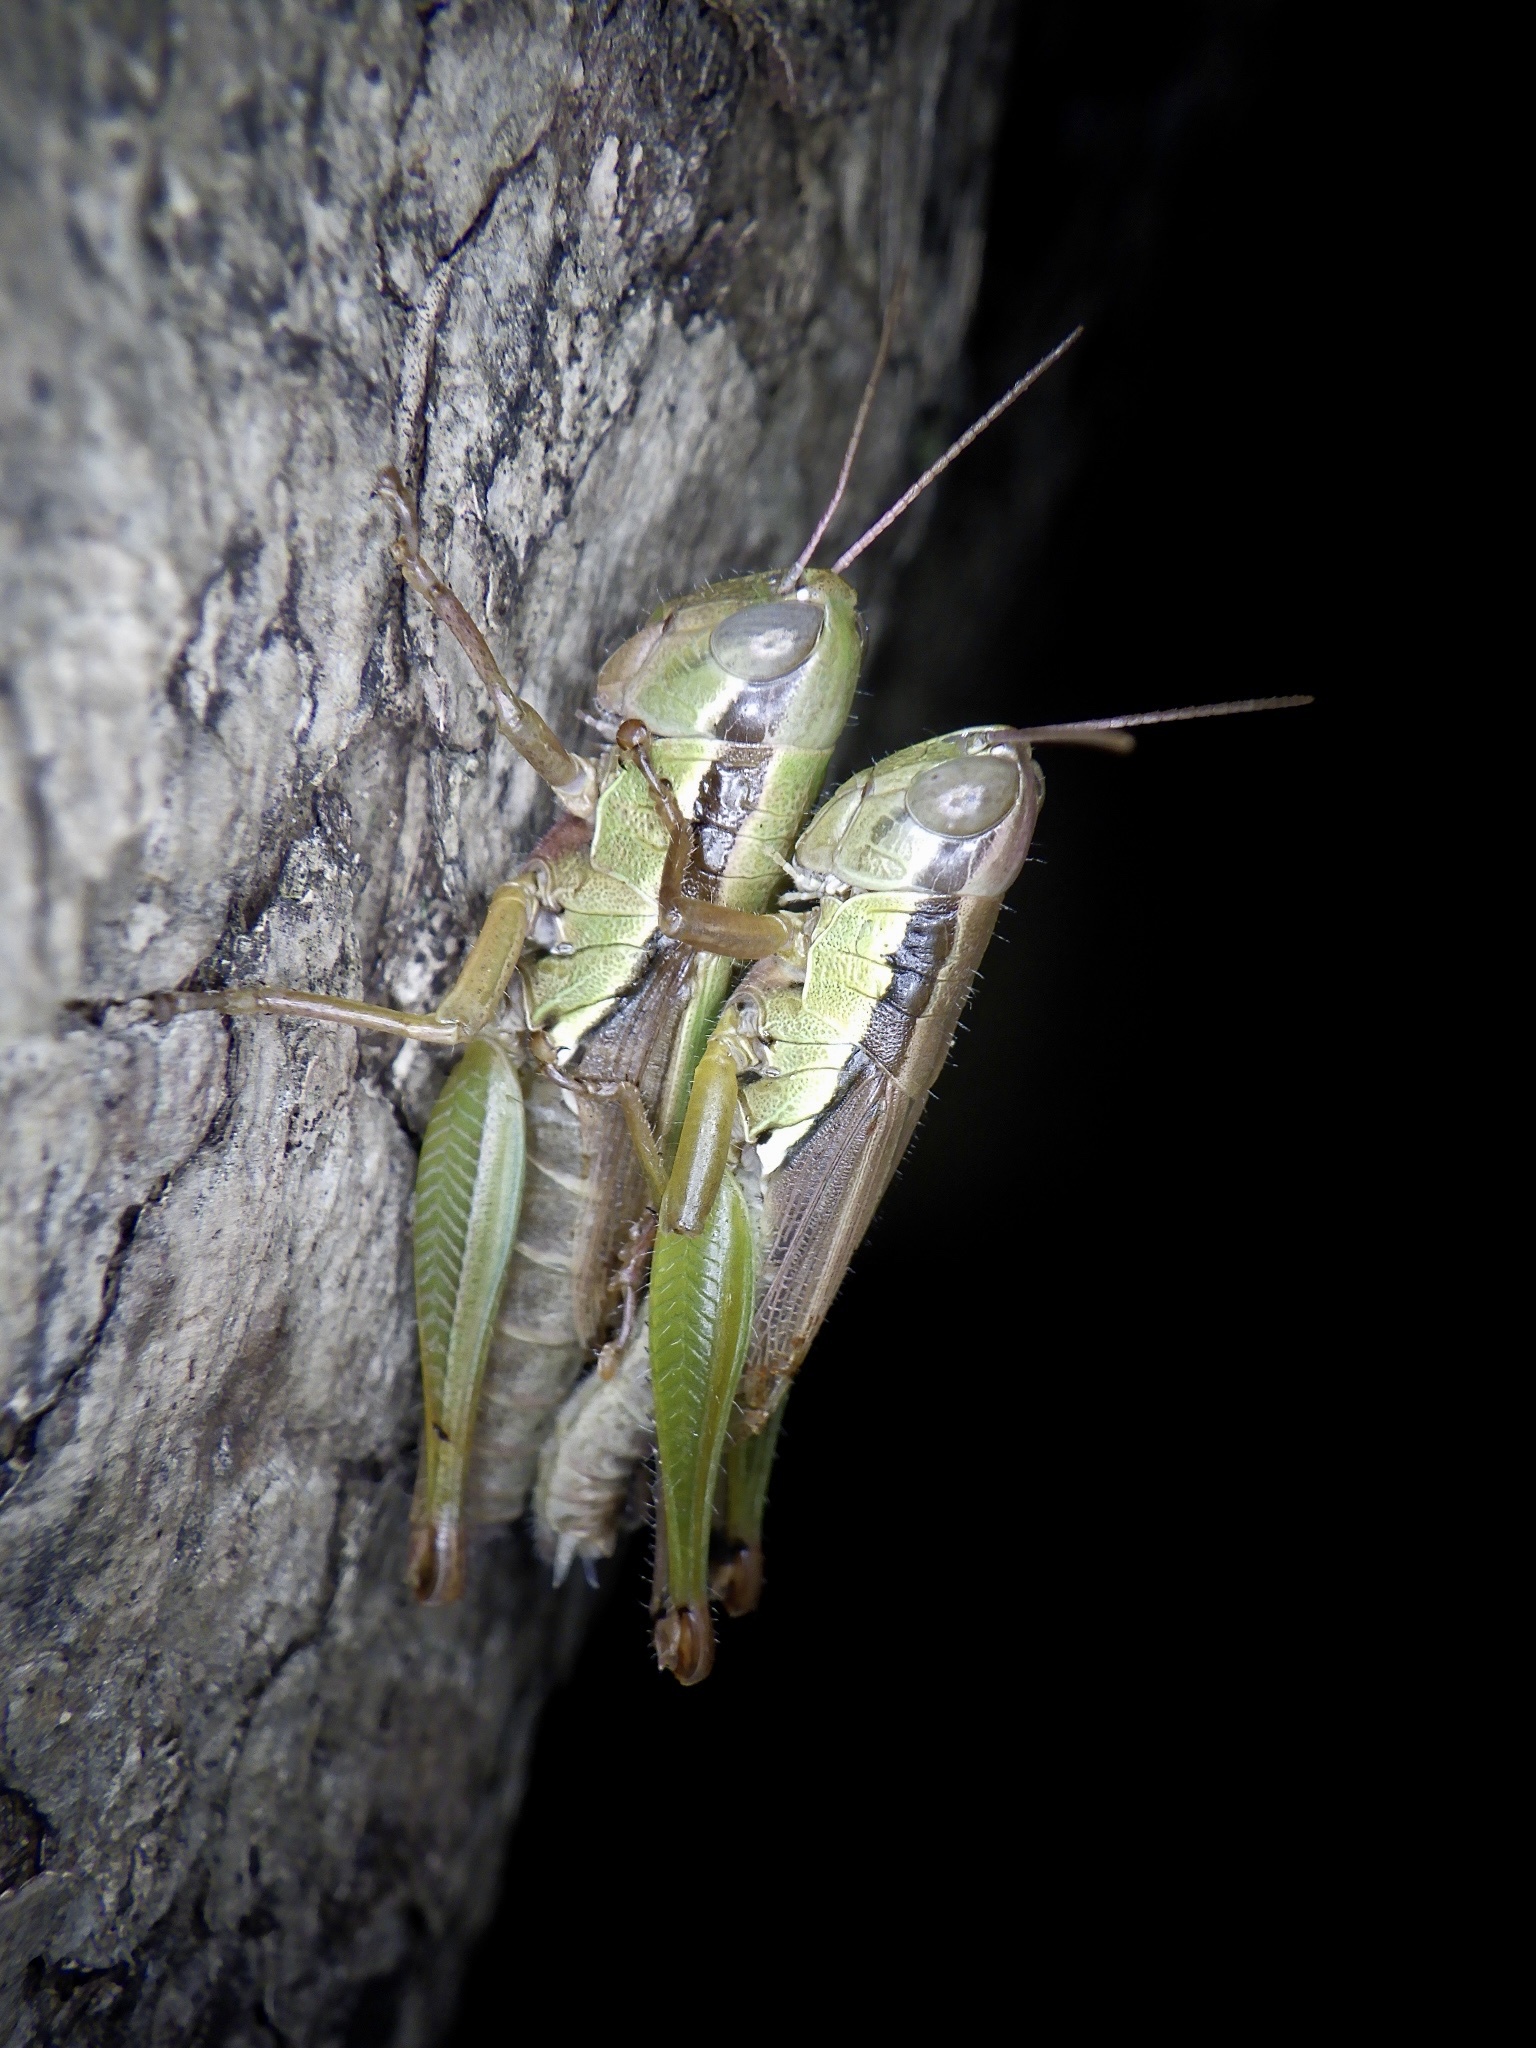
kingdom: Animalia
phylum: Arthropoda
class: Insecta
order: Orthoptera
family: Acrididae
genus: Oxya
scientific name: Oxya yezoensis
